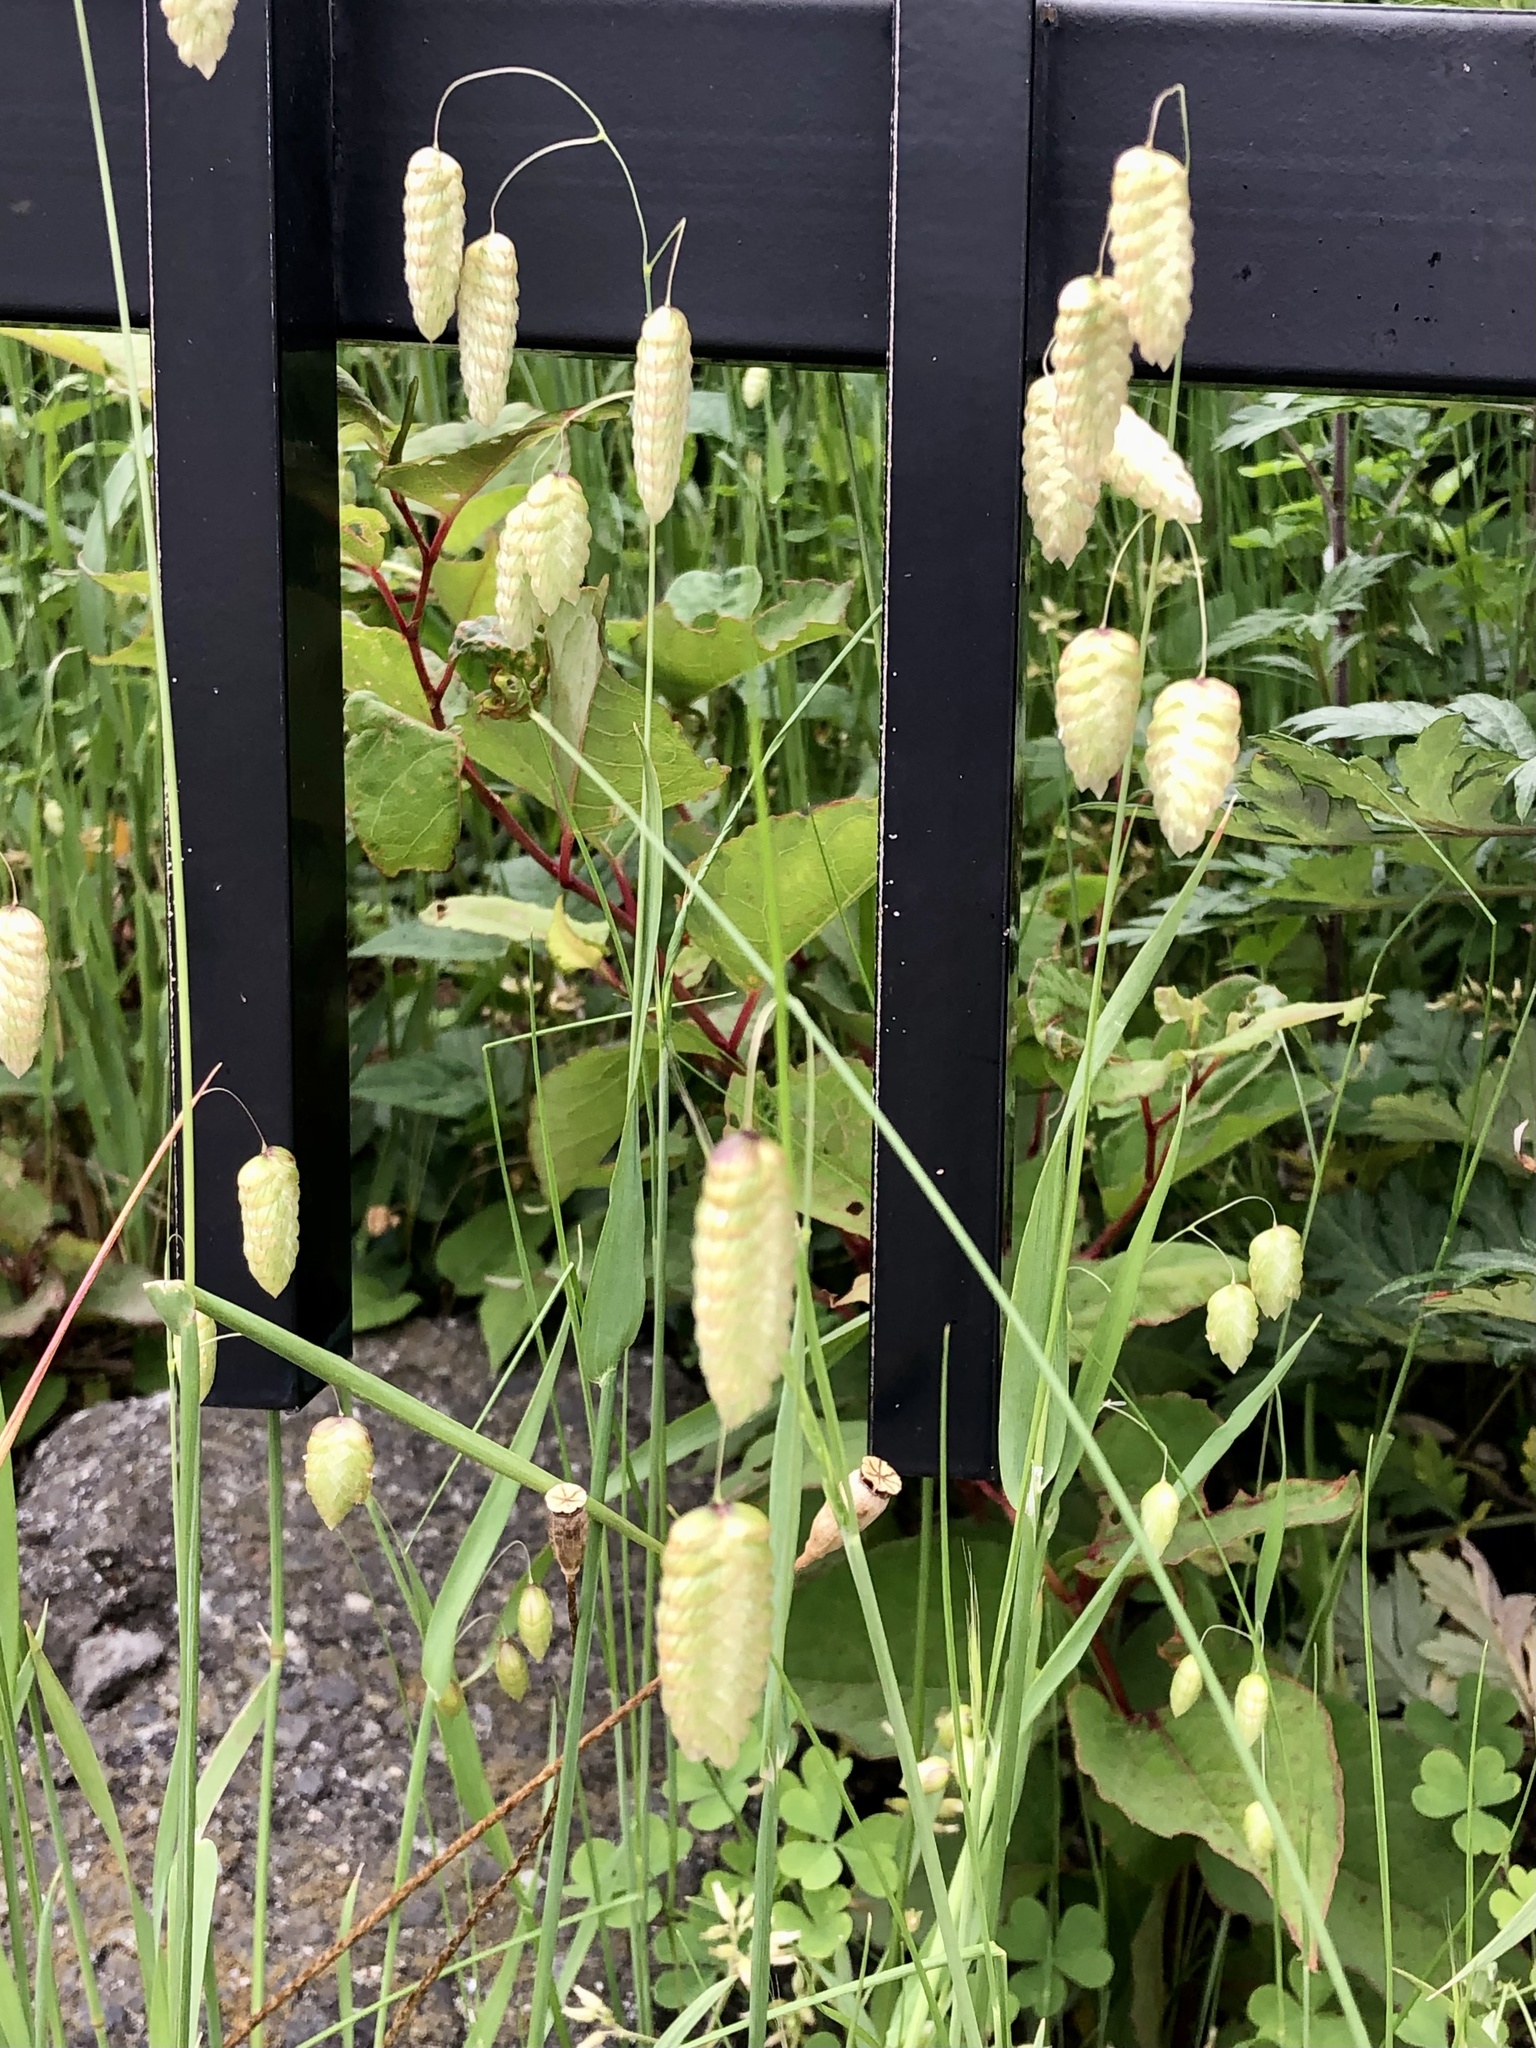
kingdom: Plantae
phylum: Tracheophyta
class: Liliopsida
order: Poales
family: Poaceae
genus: Briza
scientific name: Briza maxima
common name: Big quakinggrass
